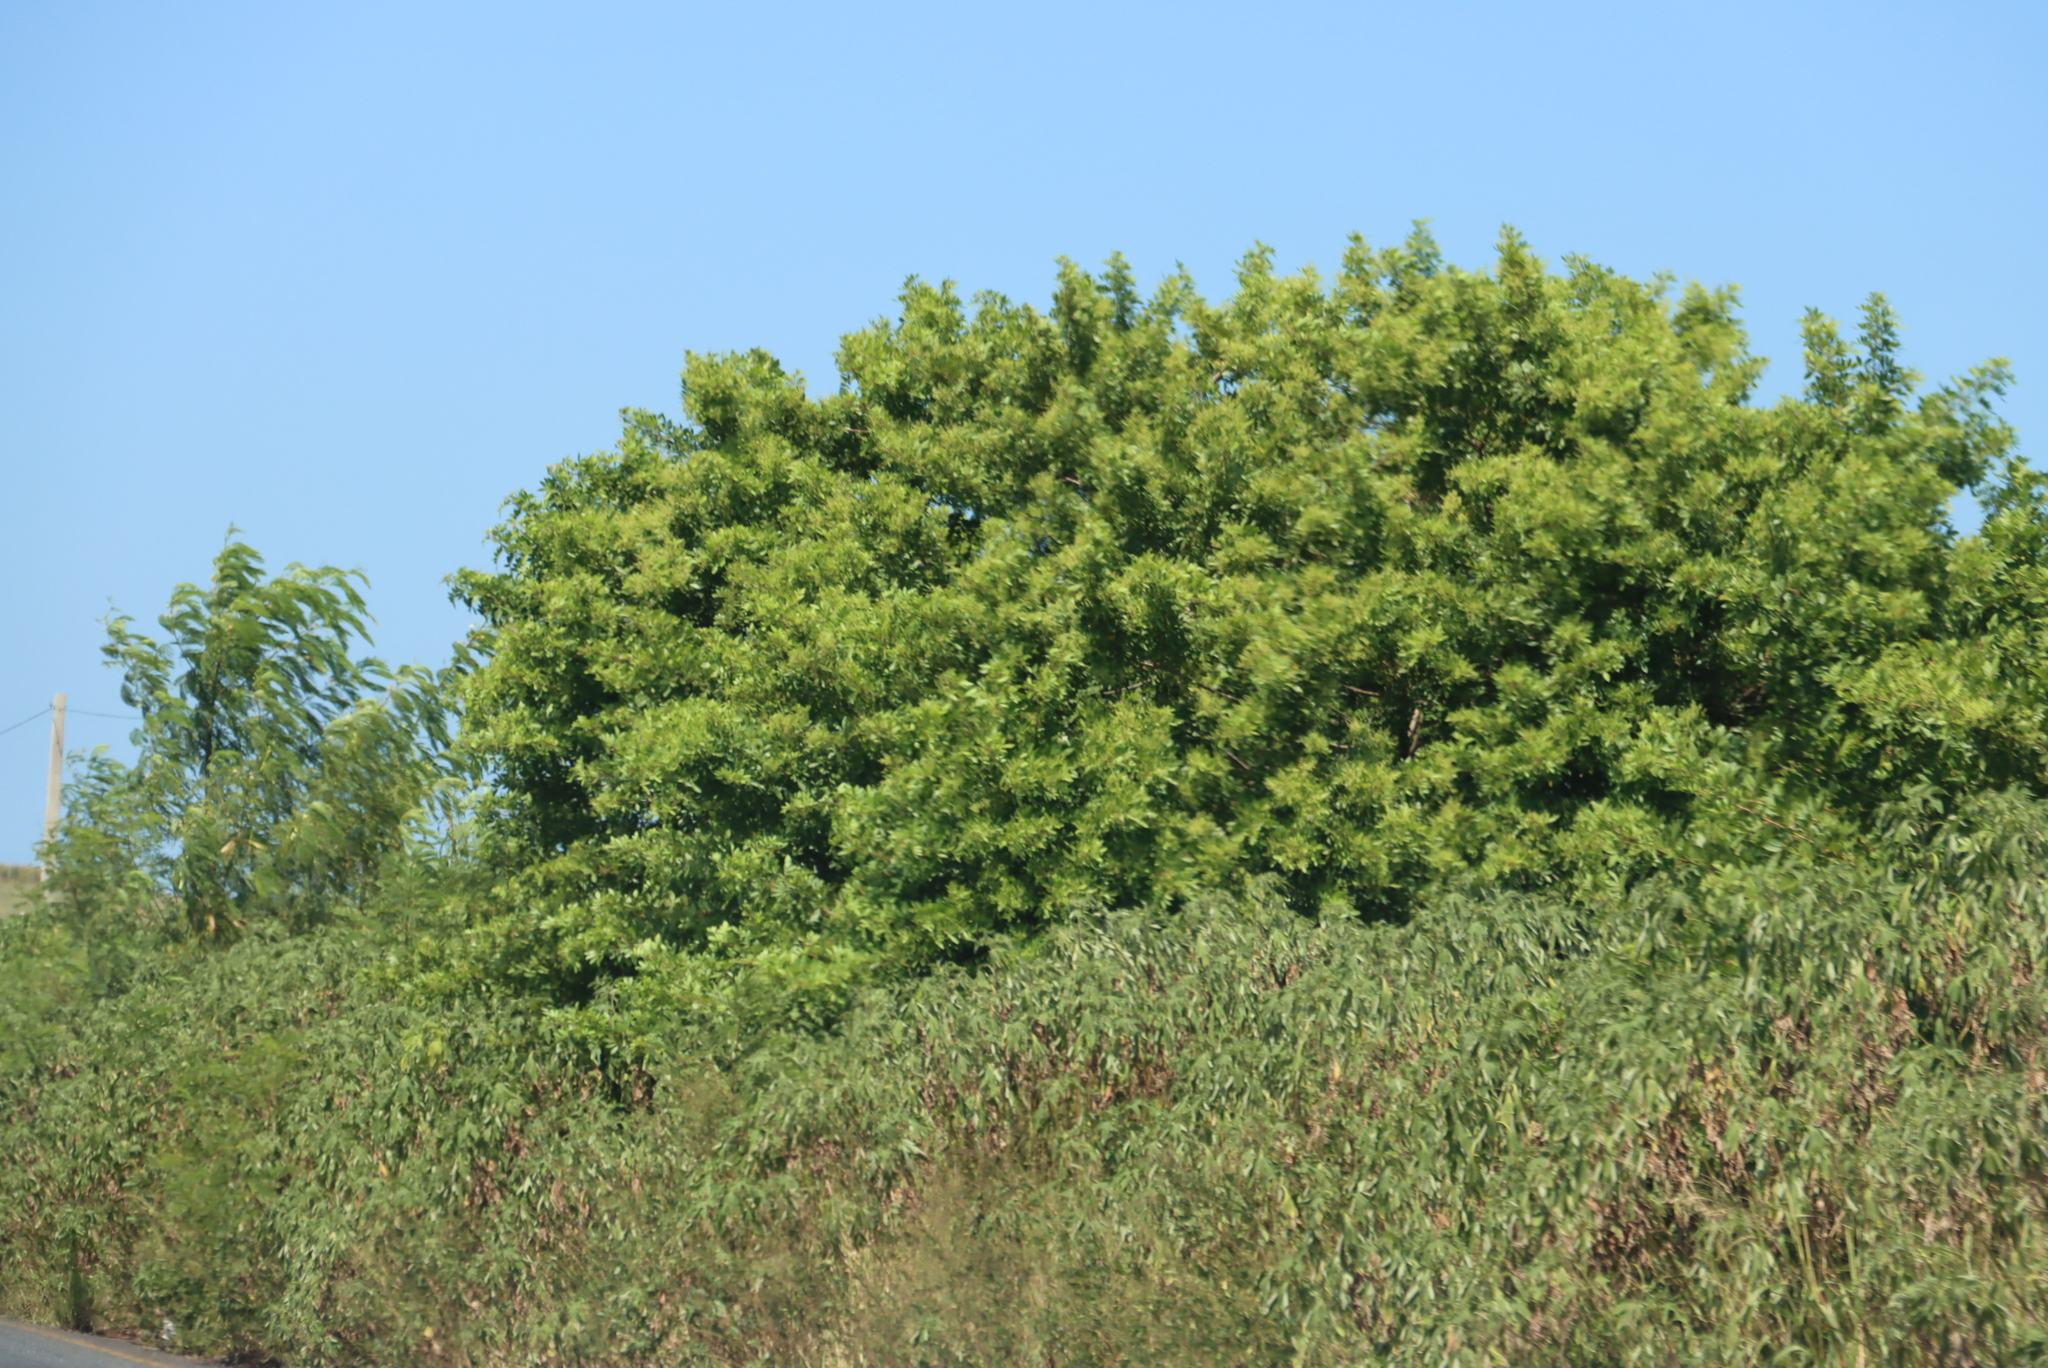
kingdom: Plantae
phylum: Tracheophyta
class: Magnoliopsida
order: Sapindales
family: Anacardiaceae
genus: Schinus
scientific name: Schinus terebinthifolia
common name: Brazilian peppertree
